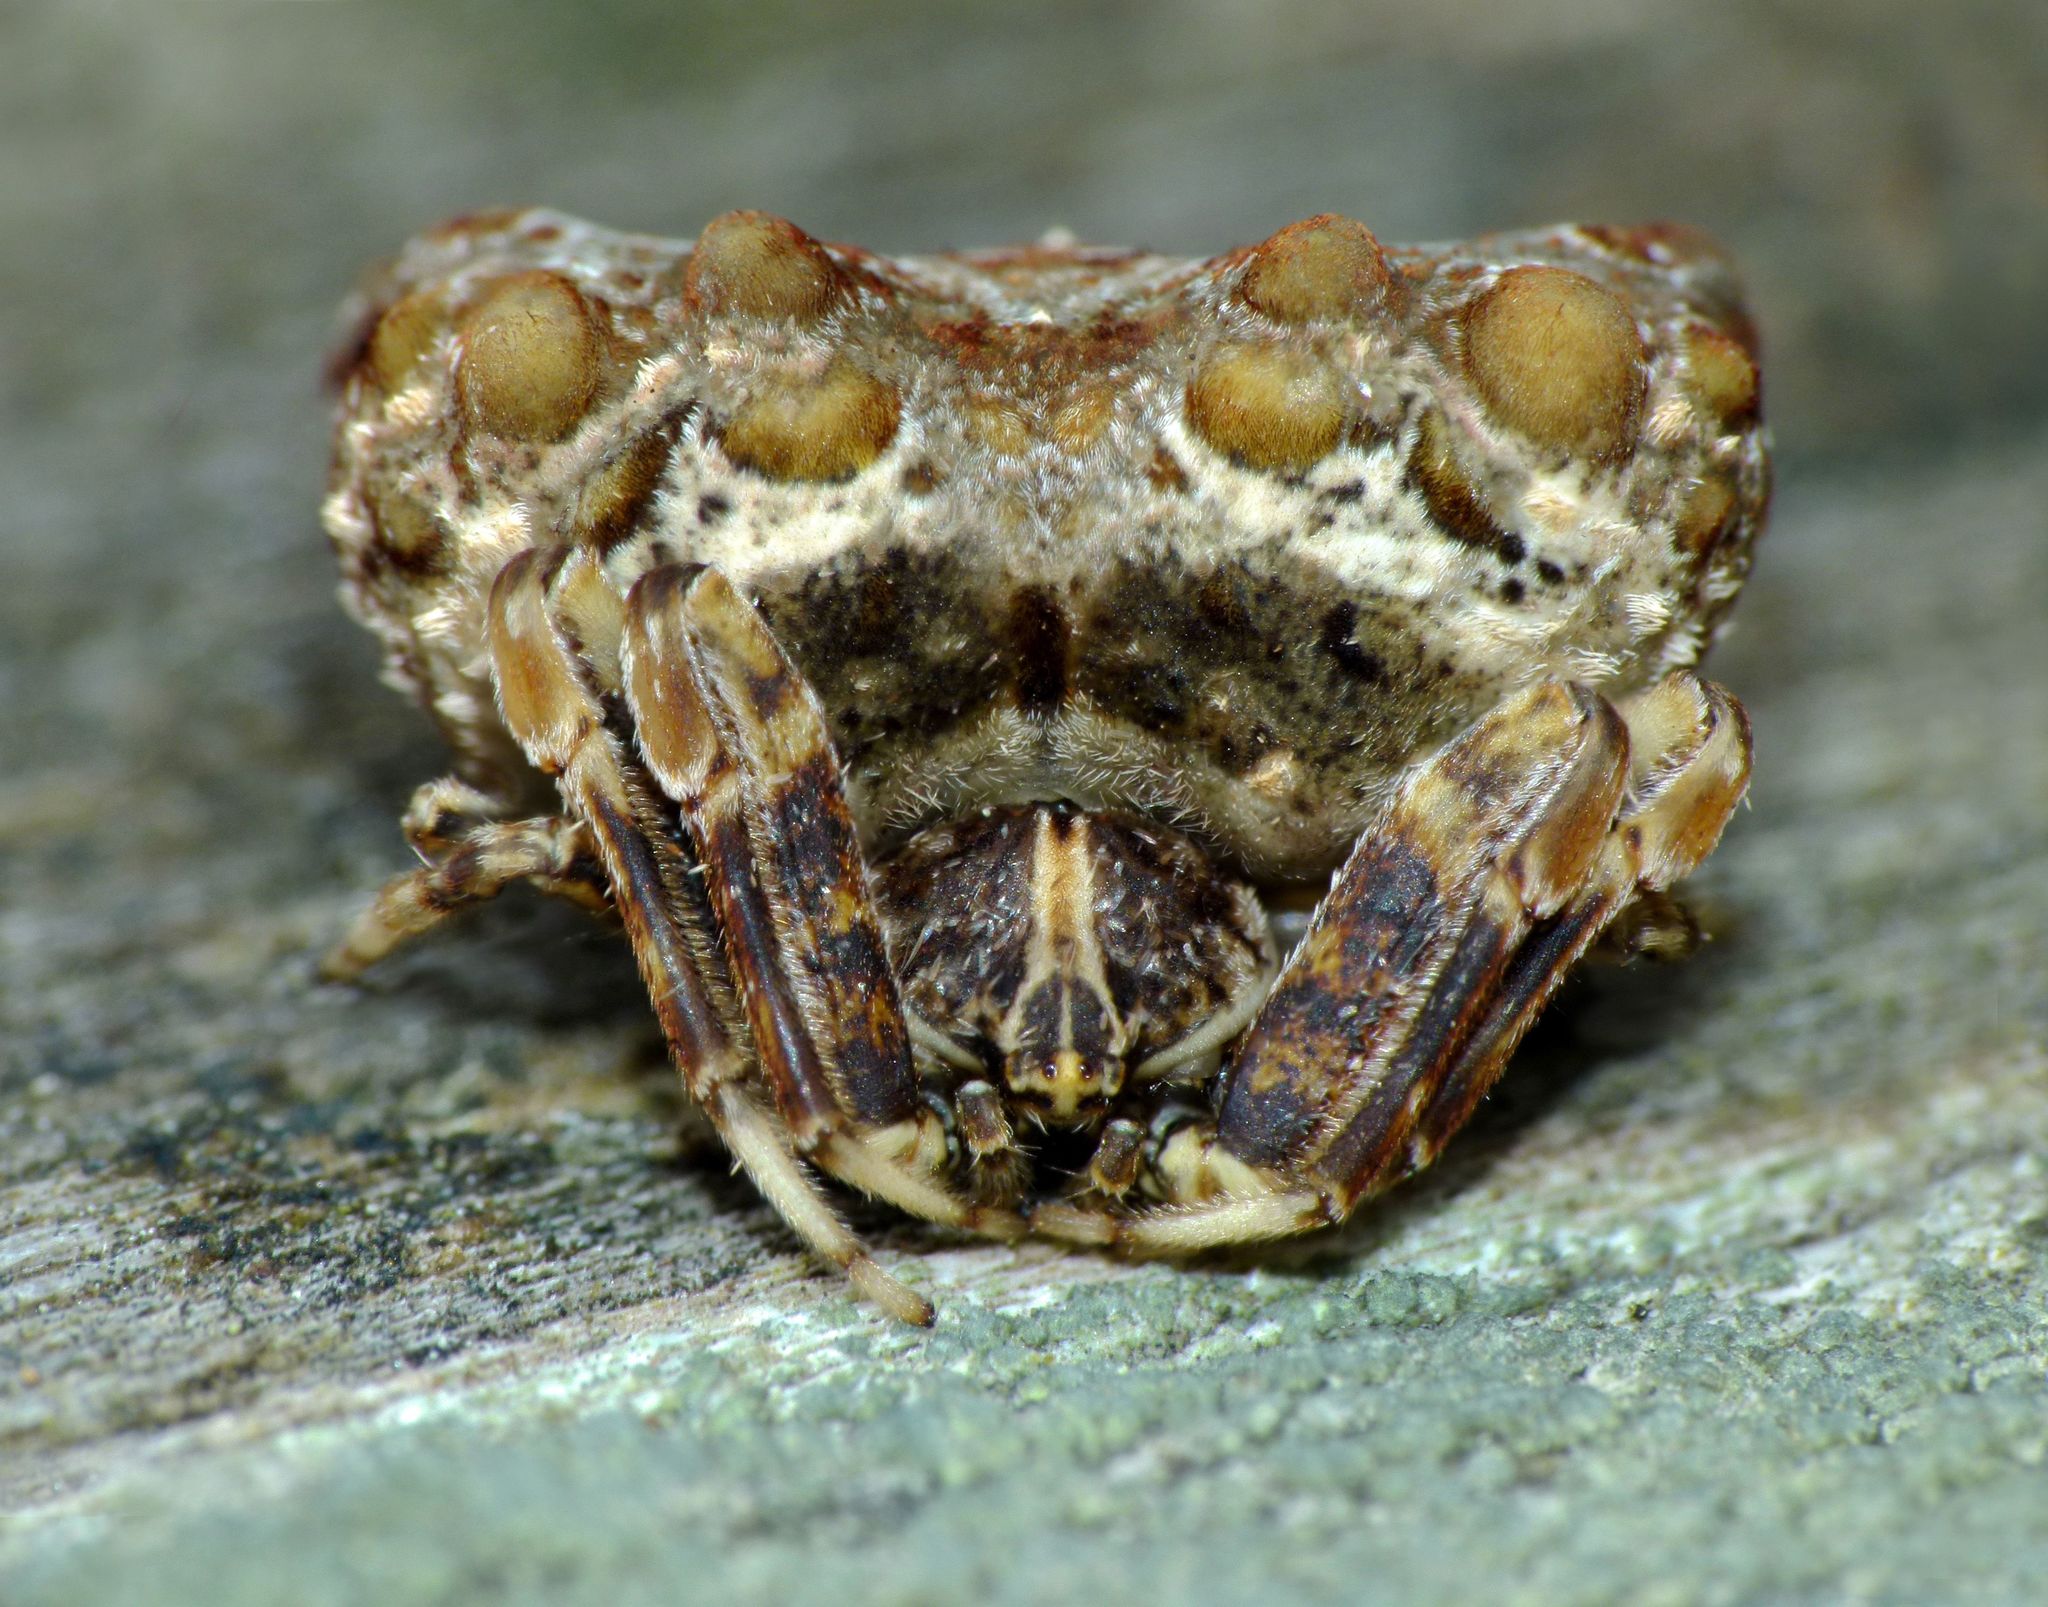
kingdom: Animalia
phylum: Arthropoda
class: Arachnida
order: Araneae
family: Araneidae
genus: Celaenia
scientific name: Celaenia tuberosa
